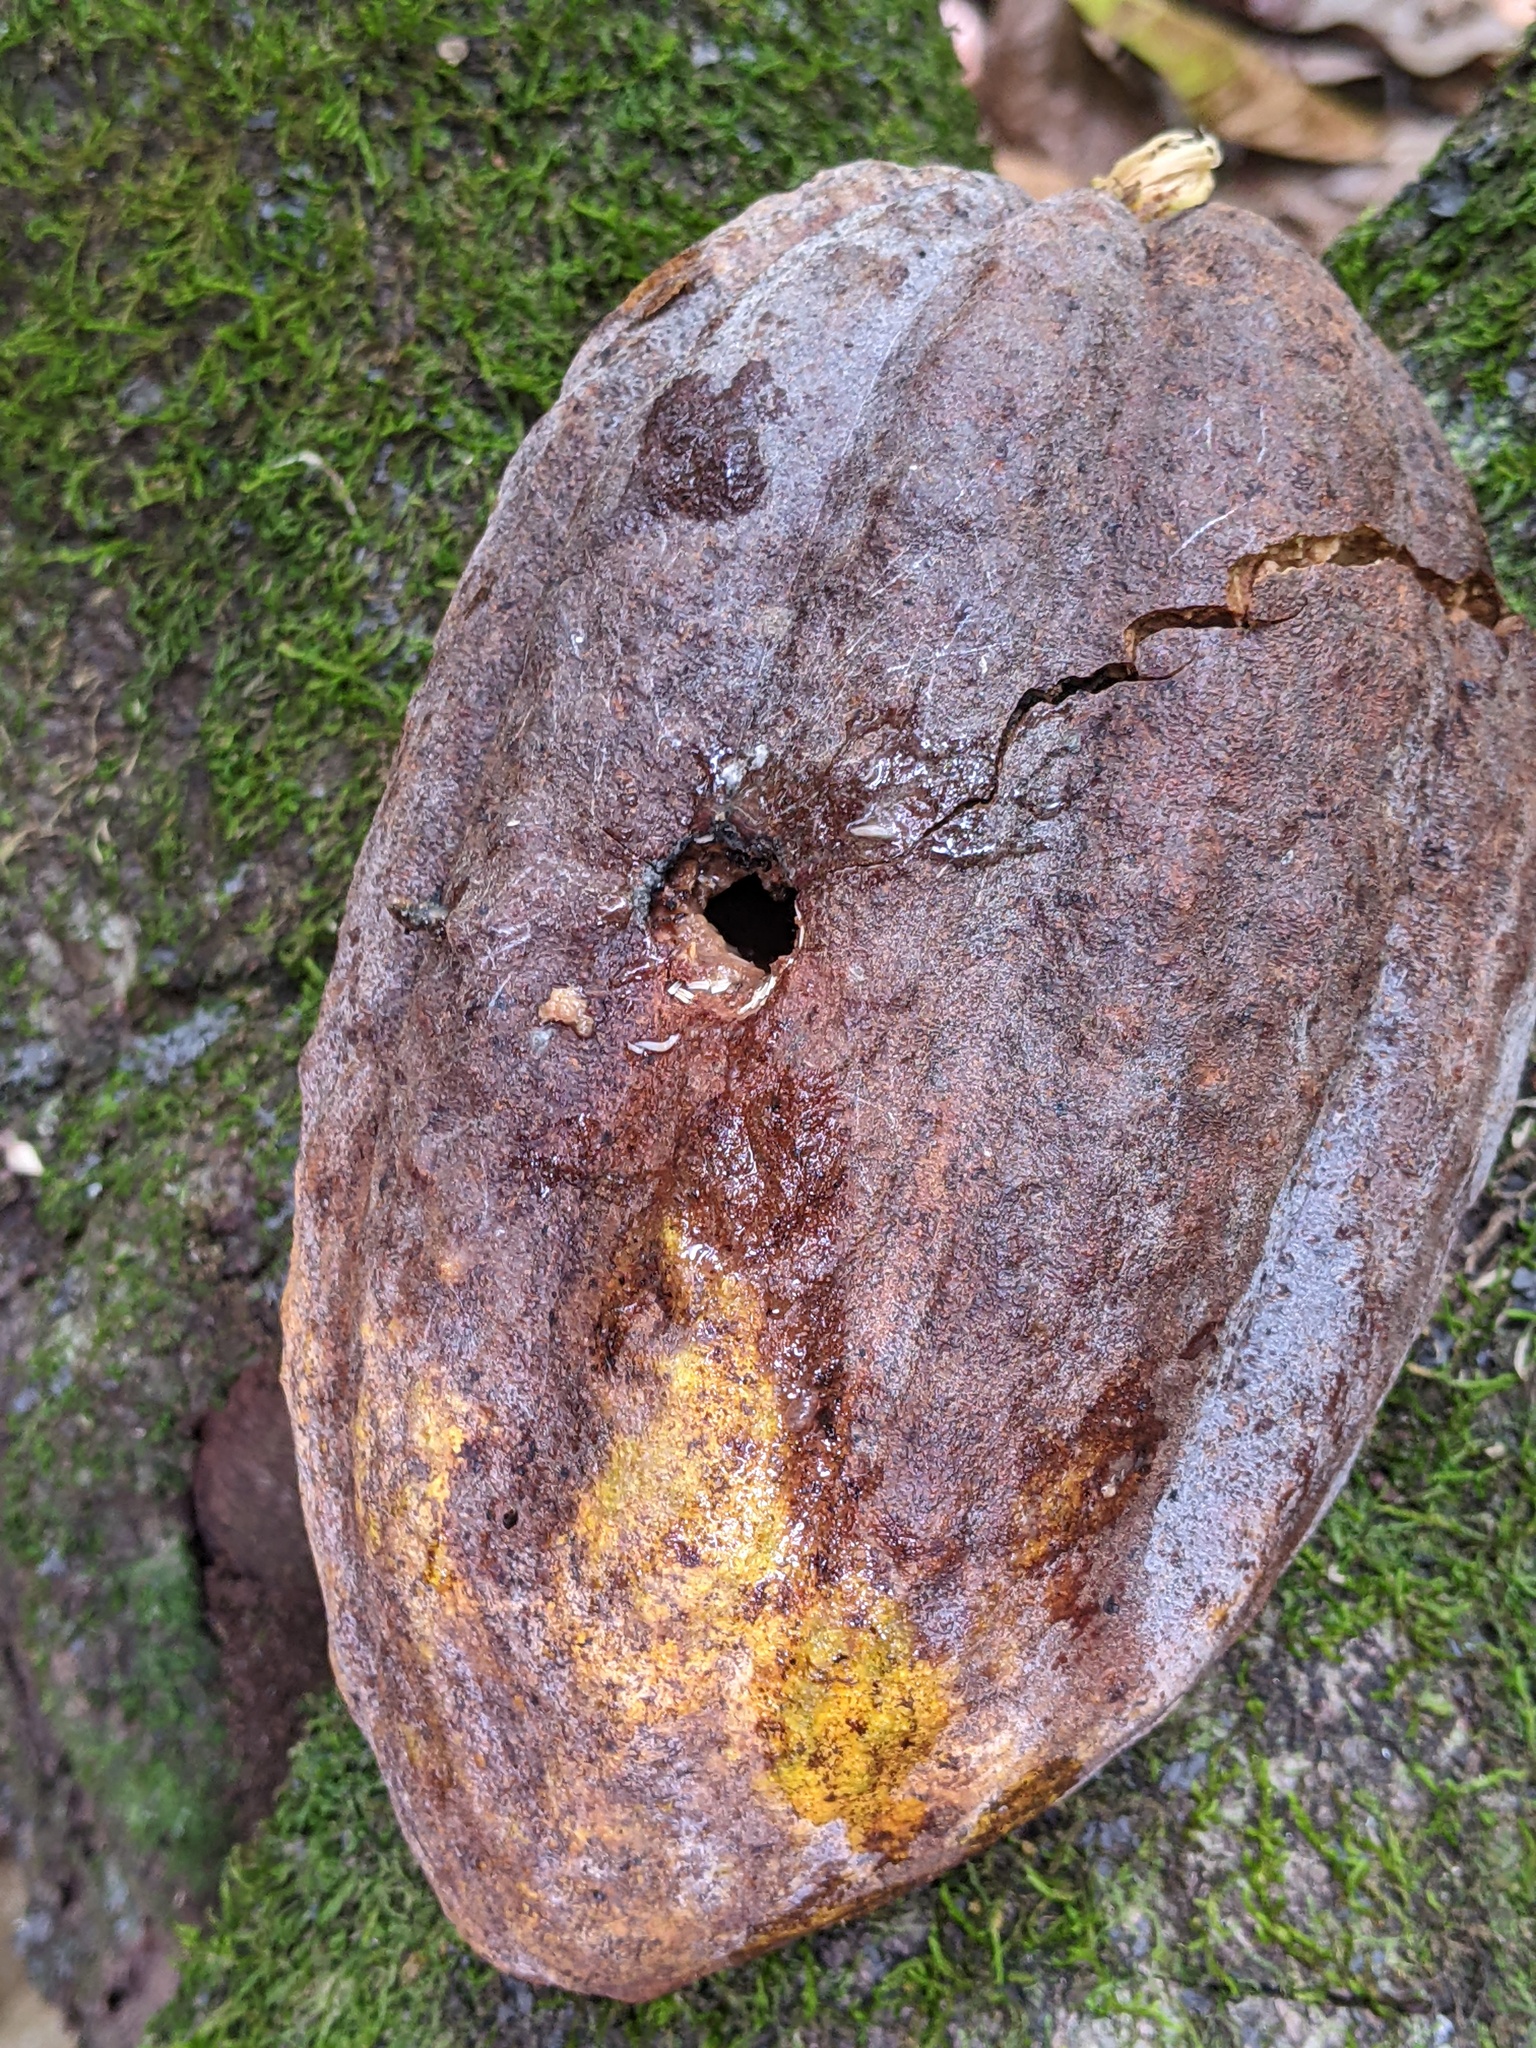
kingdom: Animalia
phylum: Chordata
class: Aves
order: Piciformes
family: Picidae
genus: Melanerpes
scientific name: Melanerpes striatus
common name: Hispaniolan woodpecker
